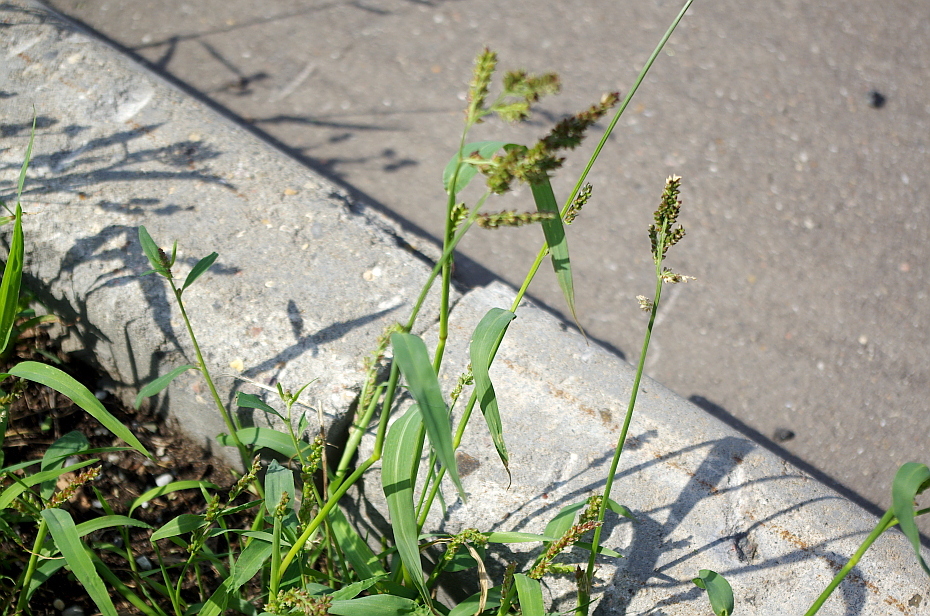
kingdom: Plantae
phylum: Tracheophyta
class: Liliopsida
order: Poales
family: Poaceae
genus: Echinochloa
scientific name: Echinochloa crus-galli
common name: Cockspur
